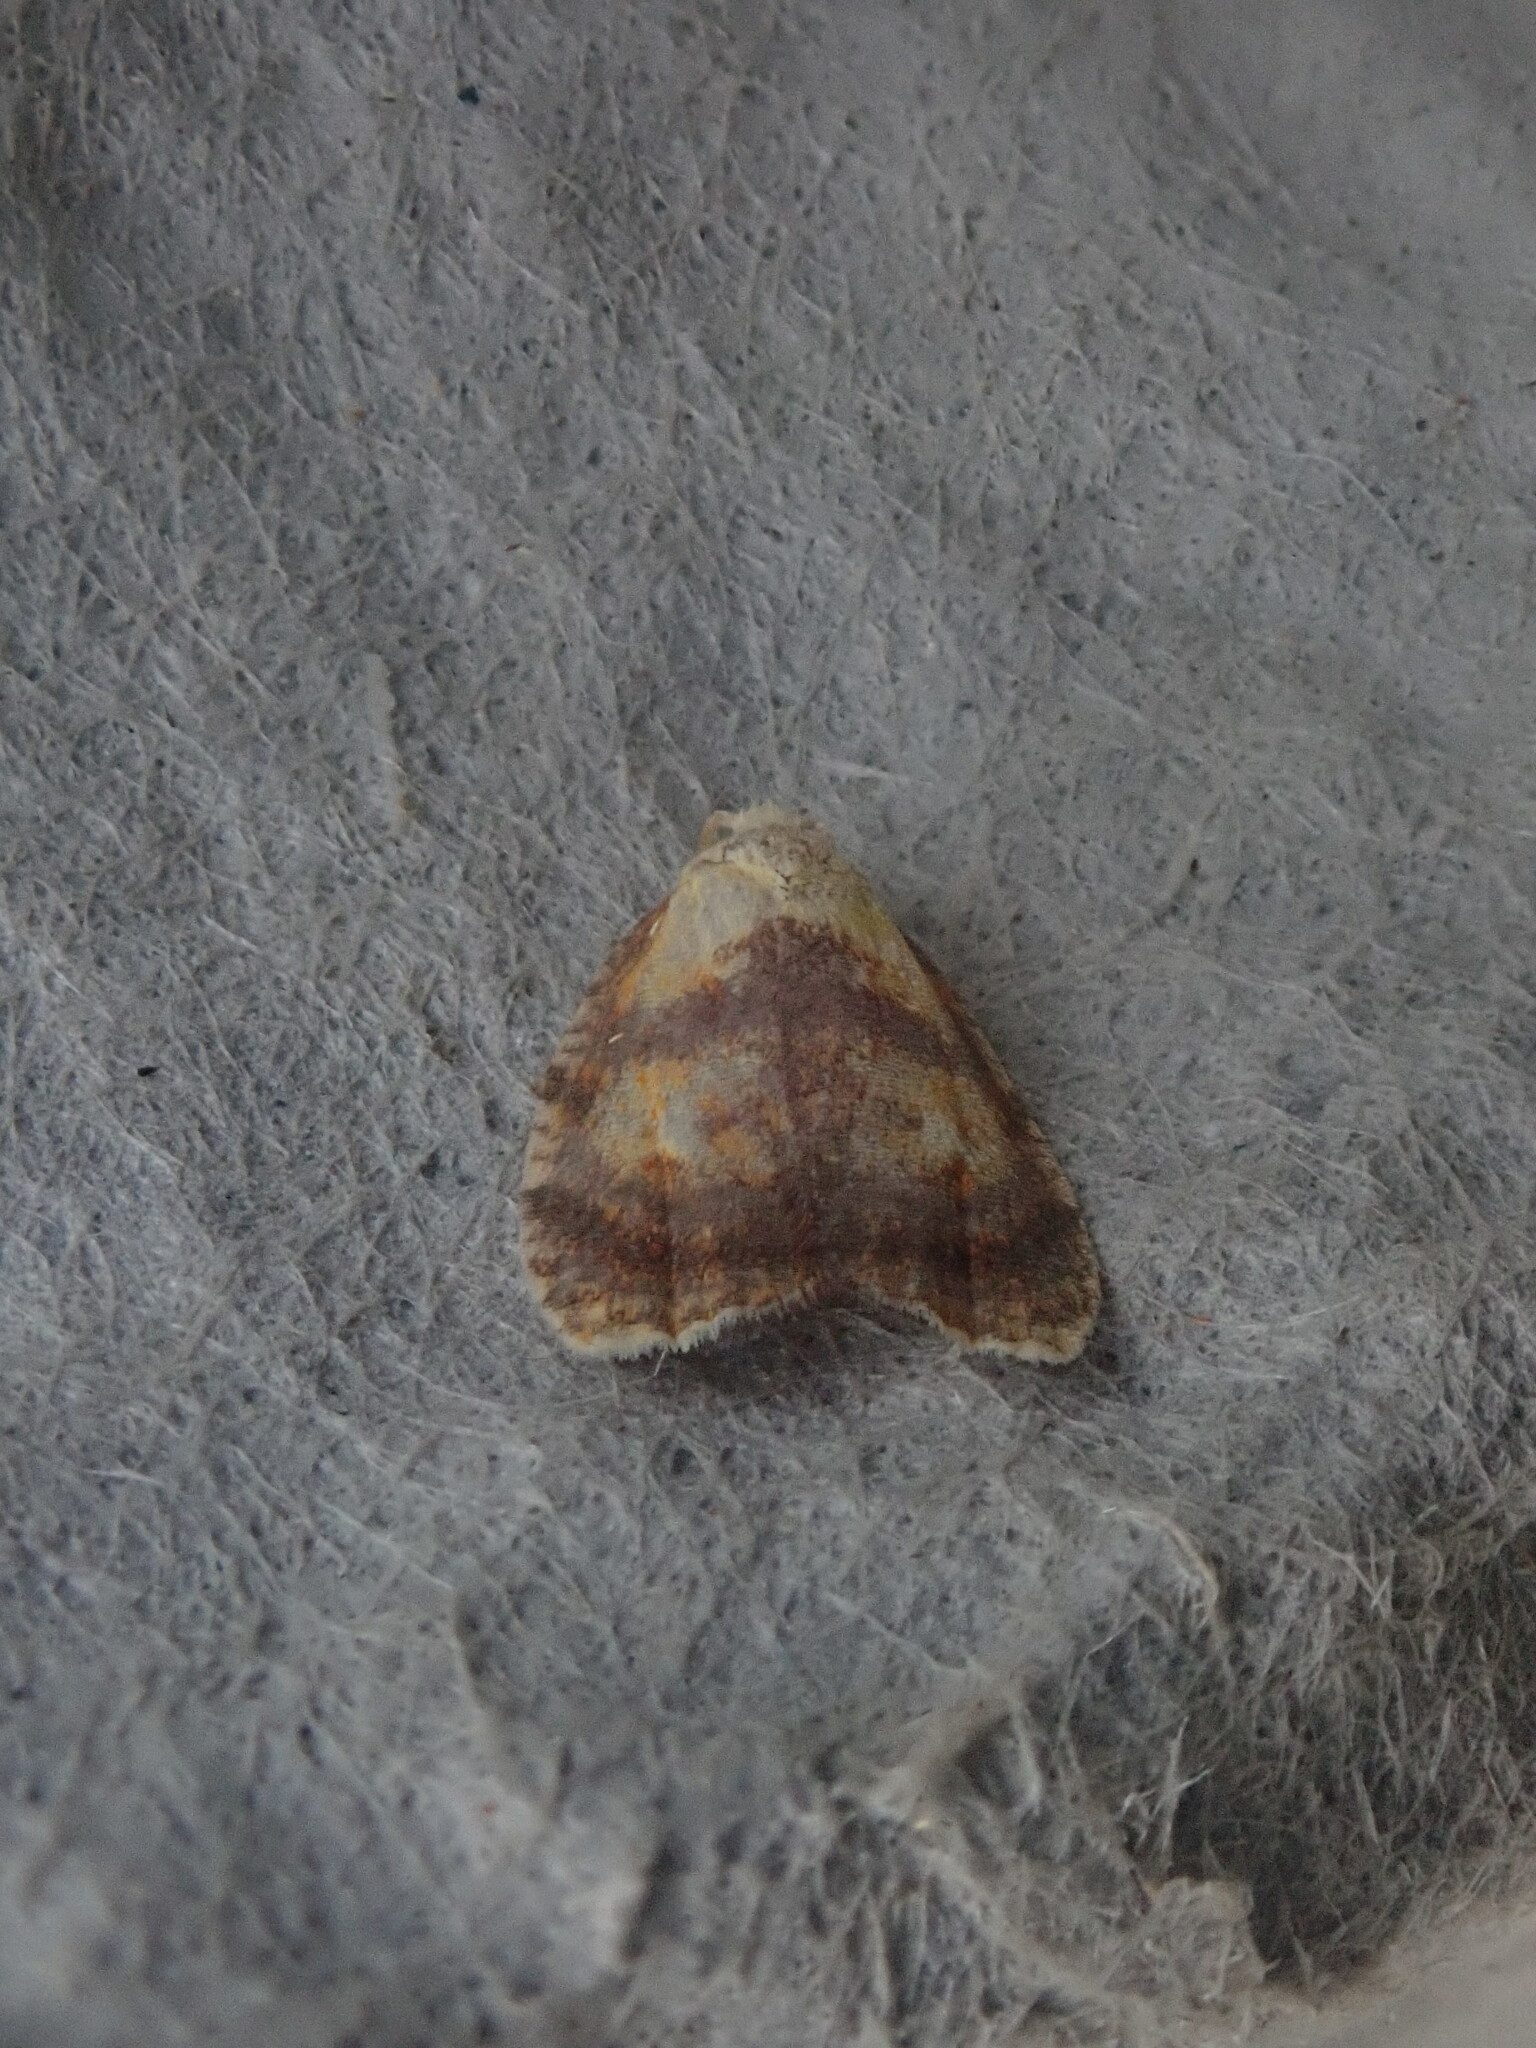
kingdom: Animalia
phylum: Arthropoda
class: Insecta
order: Lepidoptera
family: Tortricidae
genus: Acleris
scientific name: Acleris curvalana
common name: Blueberry leaftier moth
